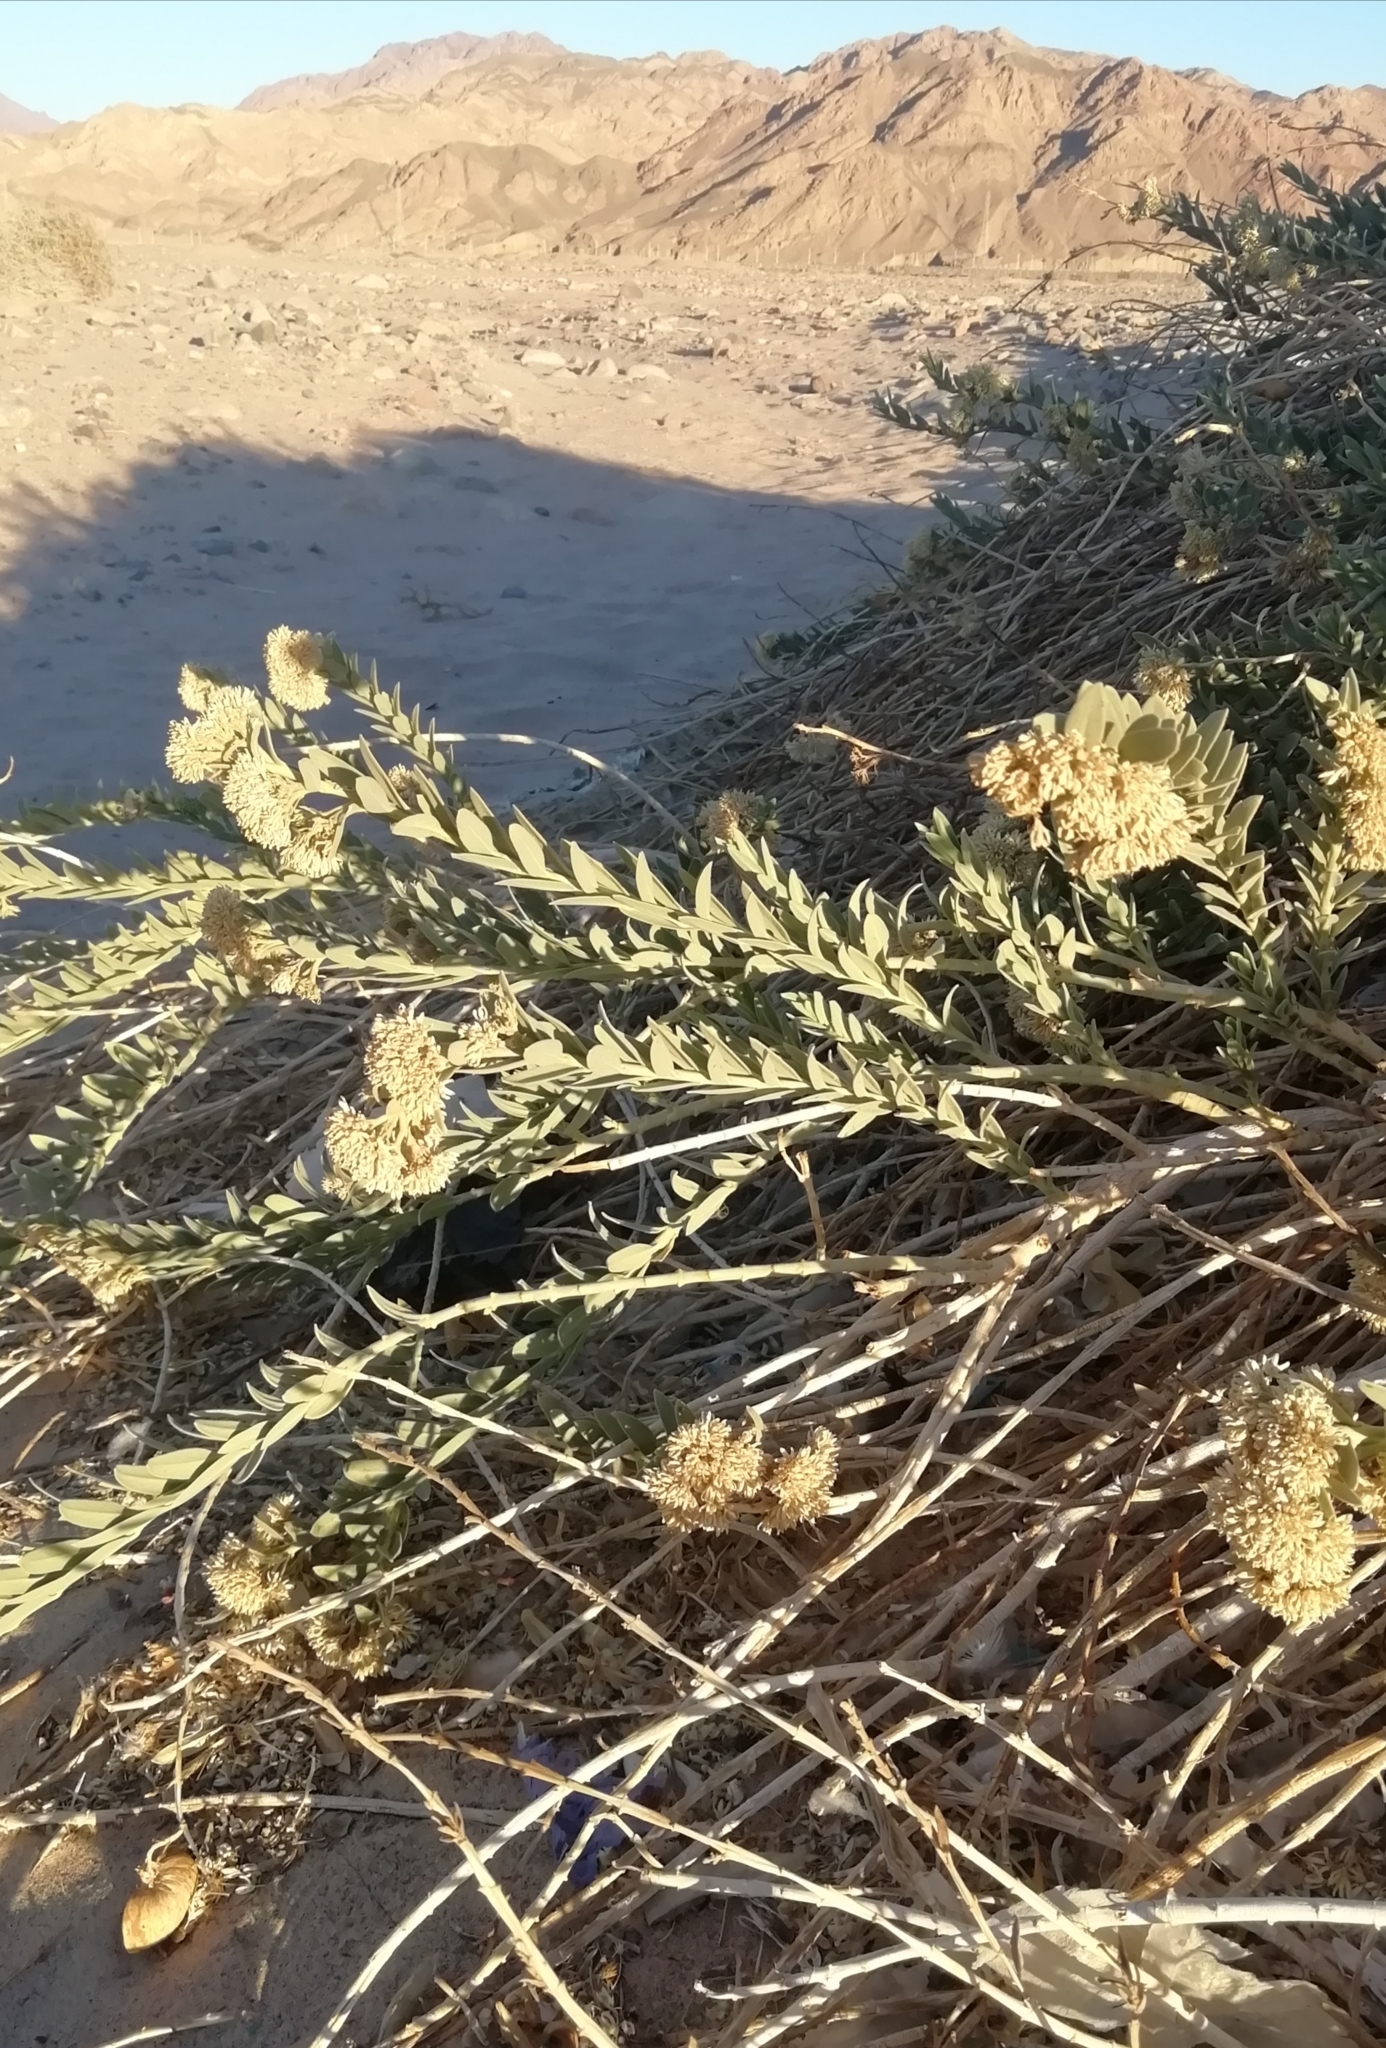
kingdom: Plantae
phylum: Tracheophyta
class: Magnoliopsida
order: Gentianales
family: Apocynaceae
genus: Solenostemma
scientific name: Solenostemma oleifolium
